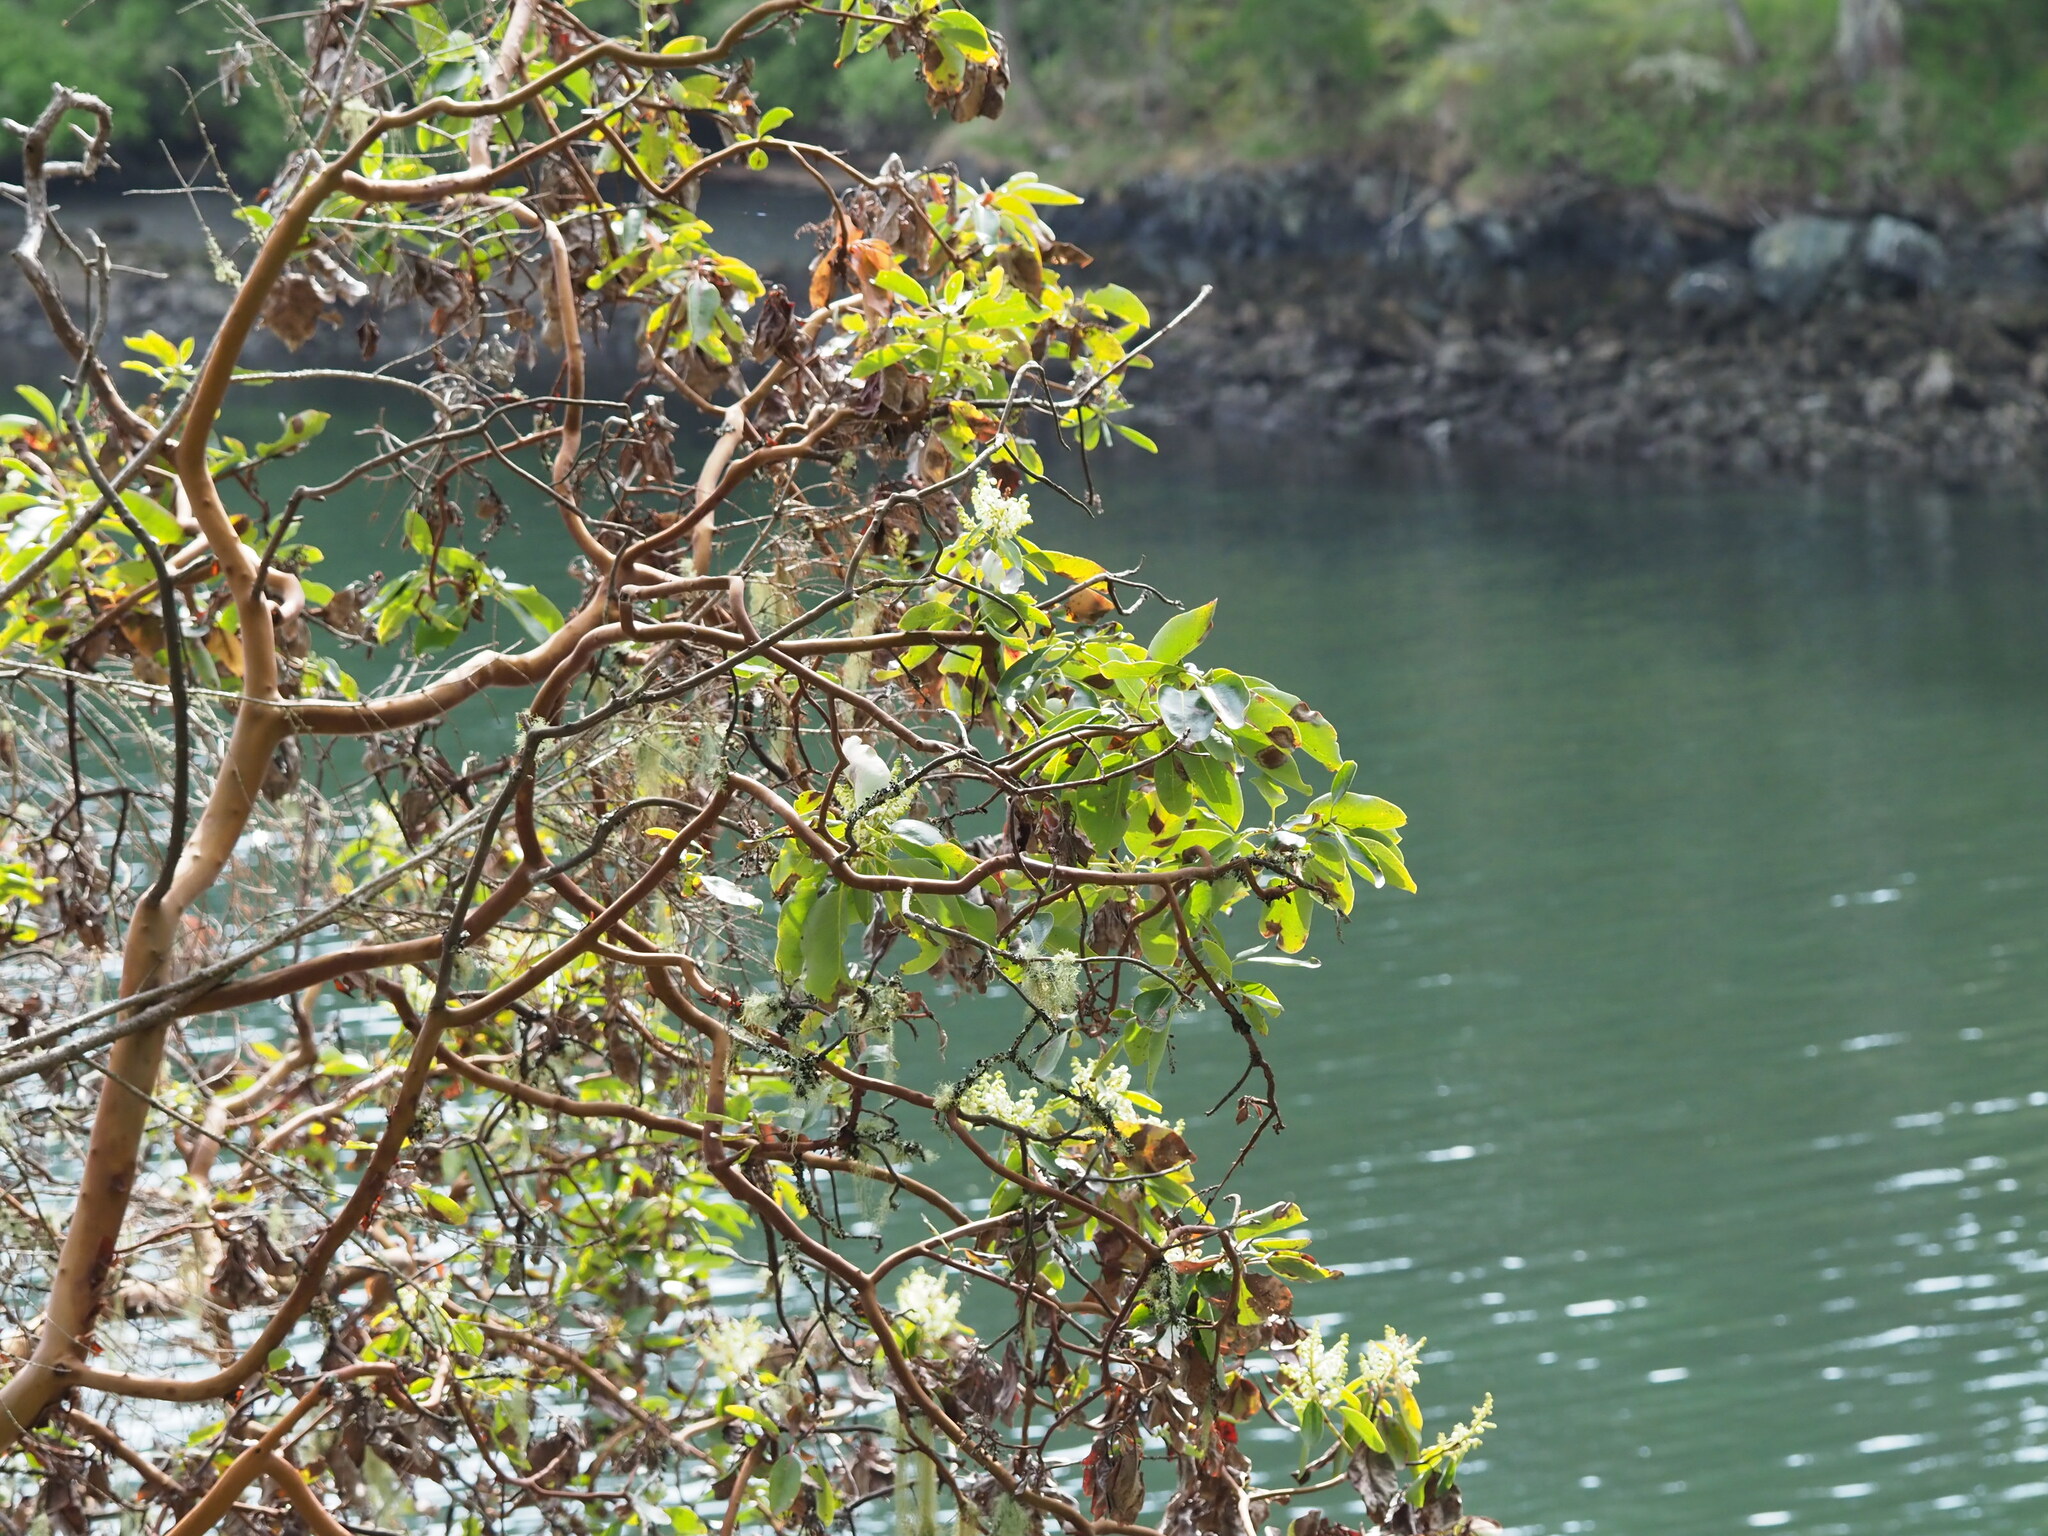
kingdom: Plantae
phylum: Tracheophyta
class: Magnoliopsida
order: Ericales
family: Ericaceae
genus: Arbutus
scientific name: Arbutus menziesii
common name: Pacific madrone
